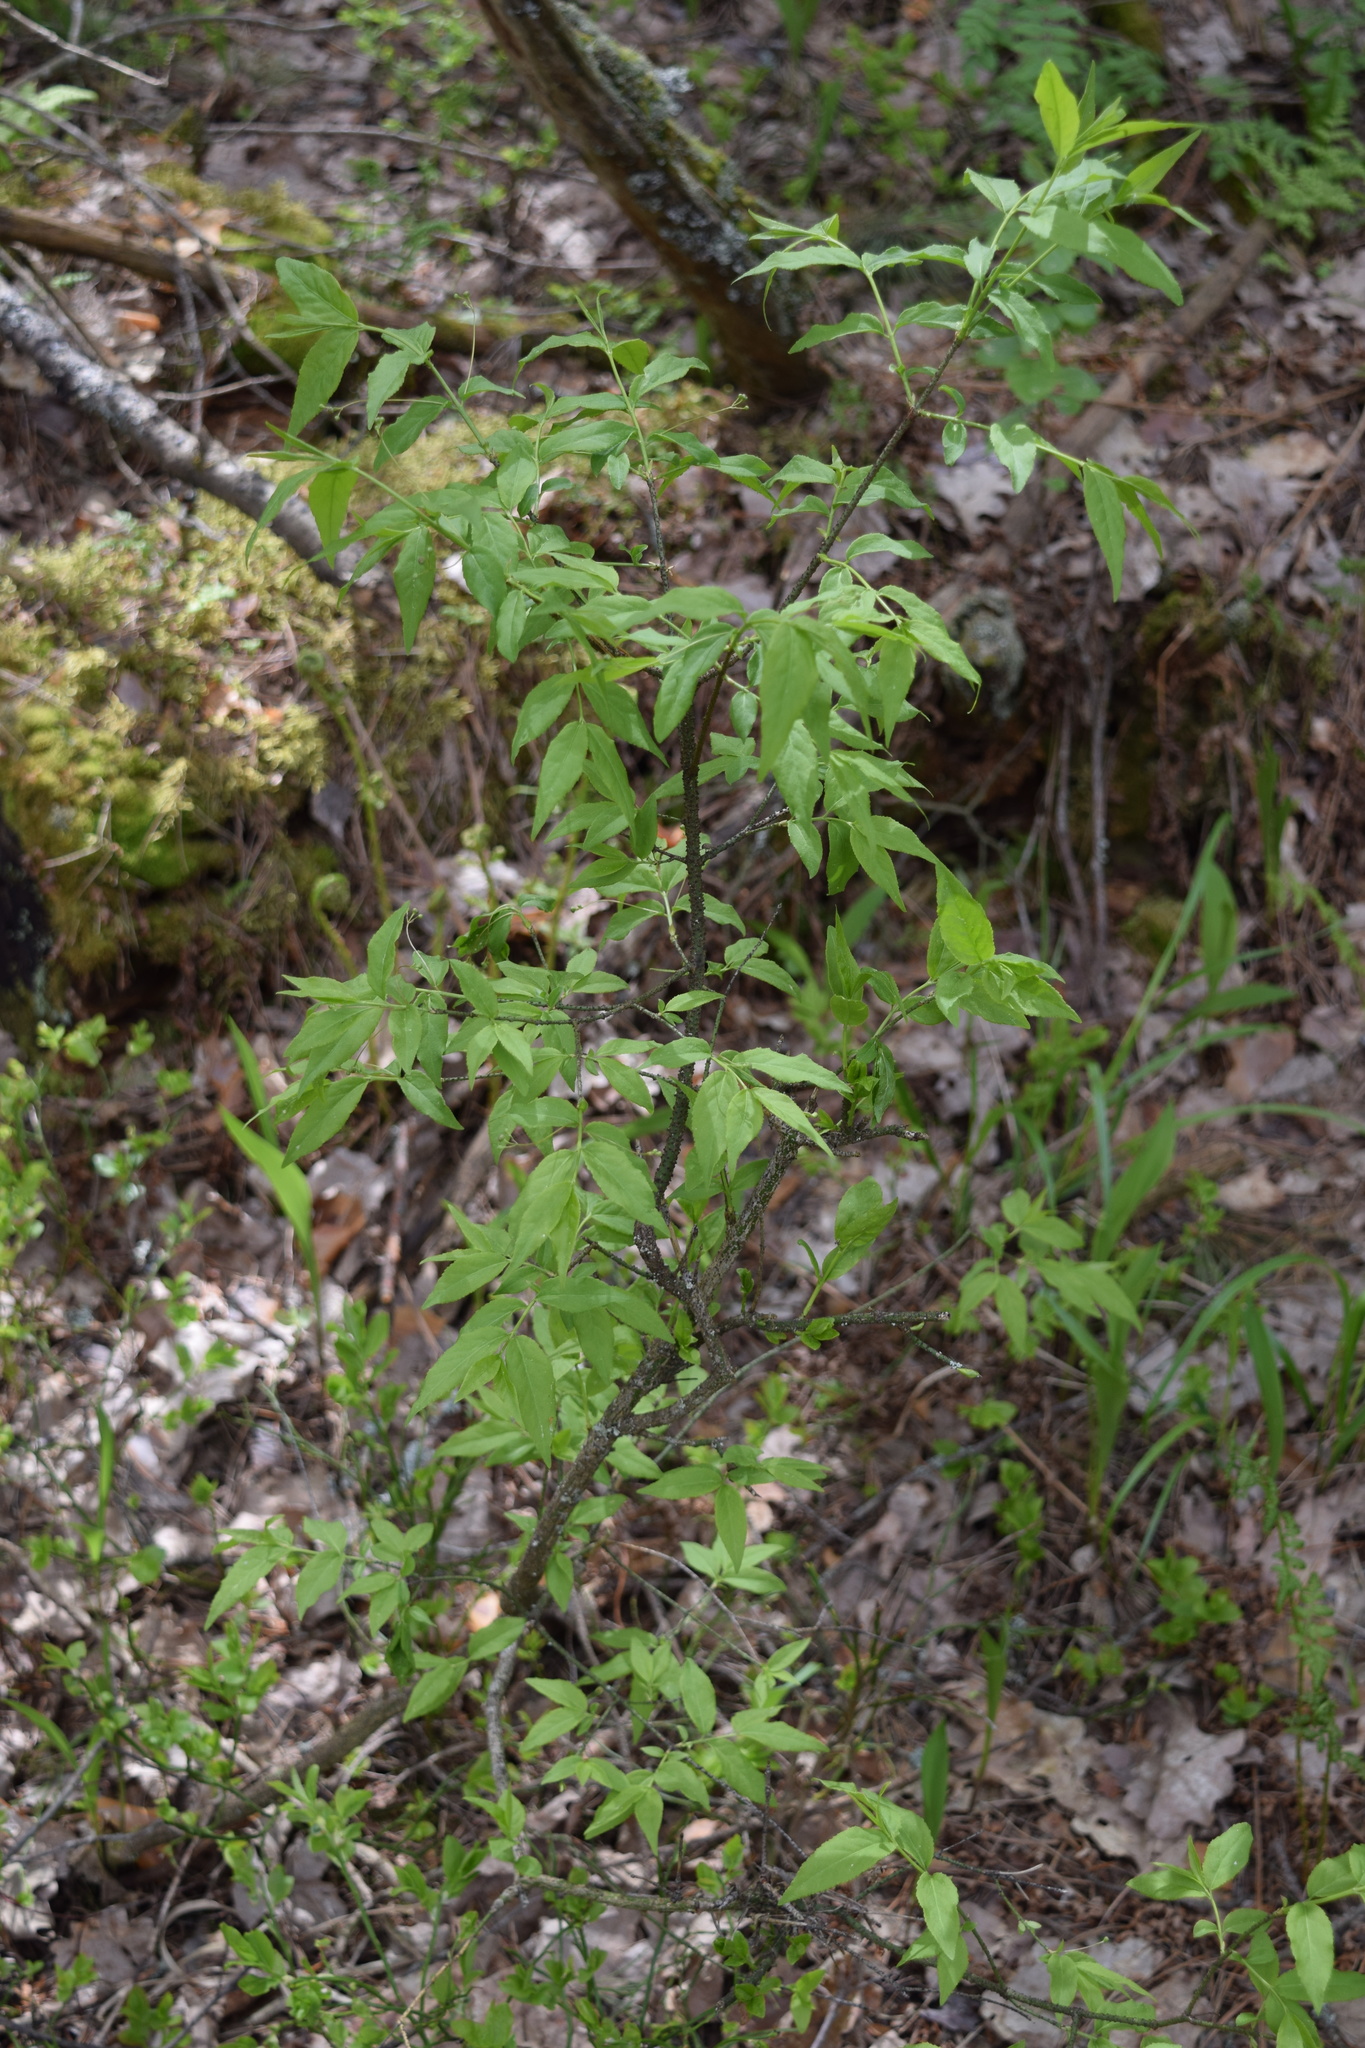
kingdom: Plantae
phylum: Tracheophyta
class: Magnoliopsida
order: Celastrales
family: Celastraceae
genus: Euonymus
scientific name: Euonymus verrucosus
